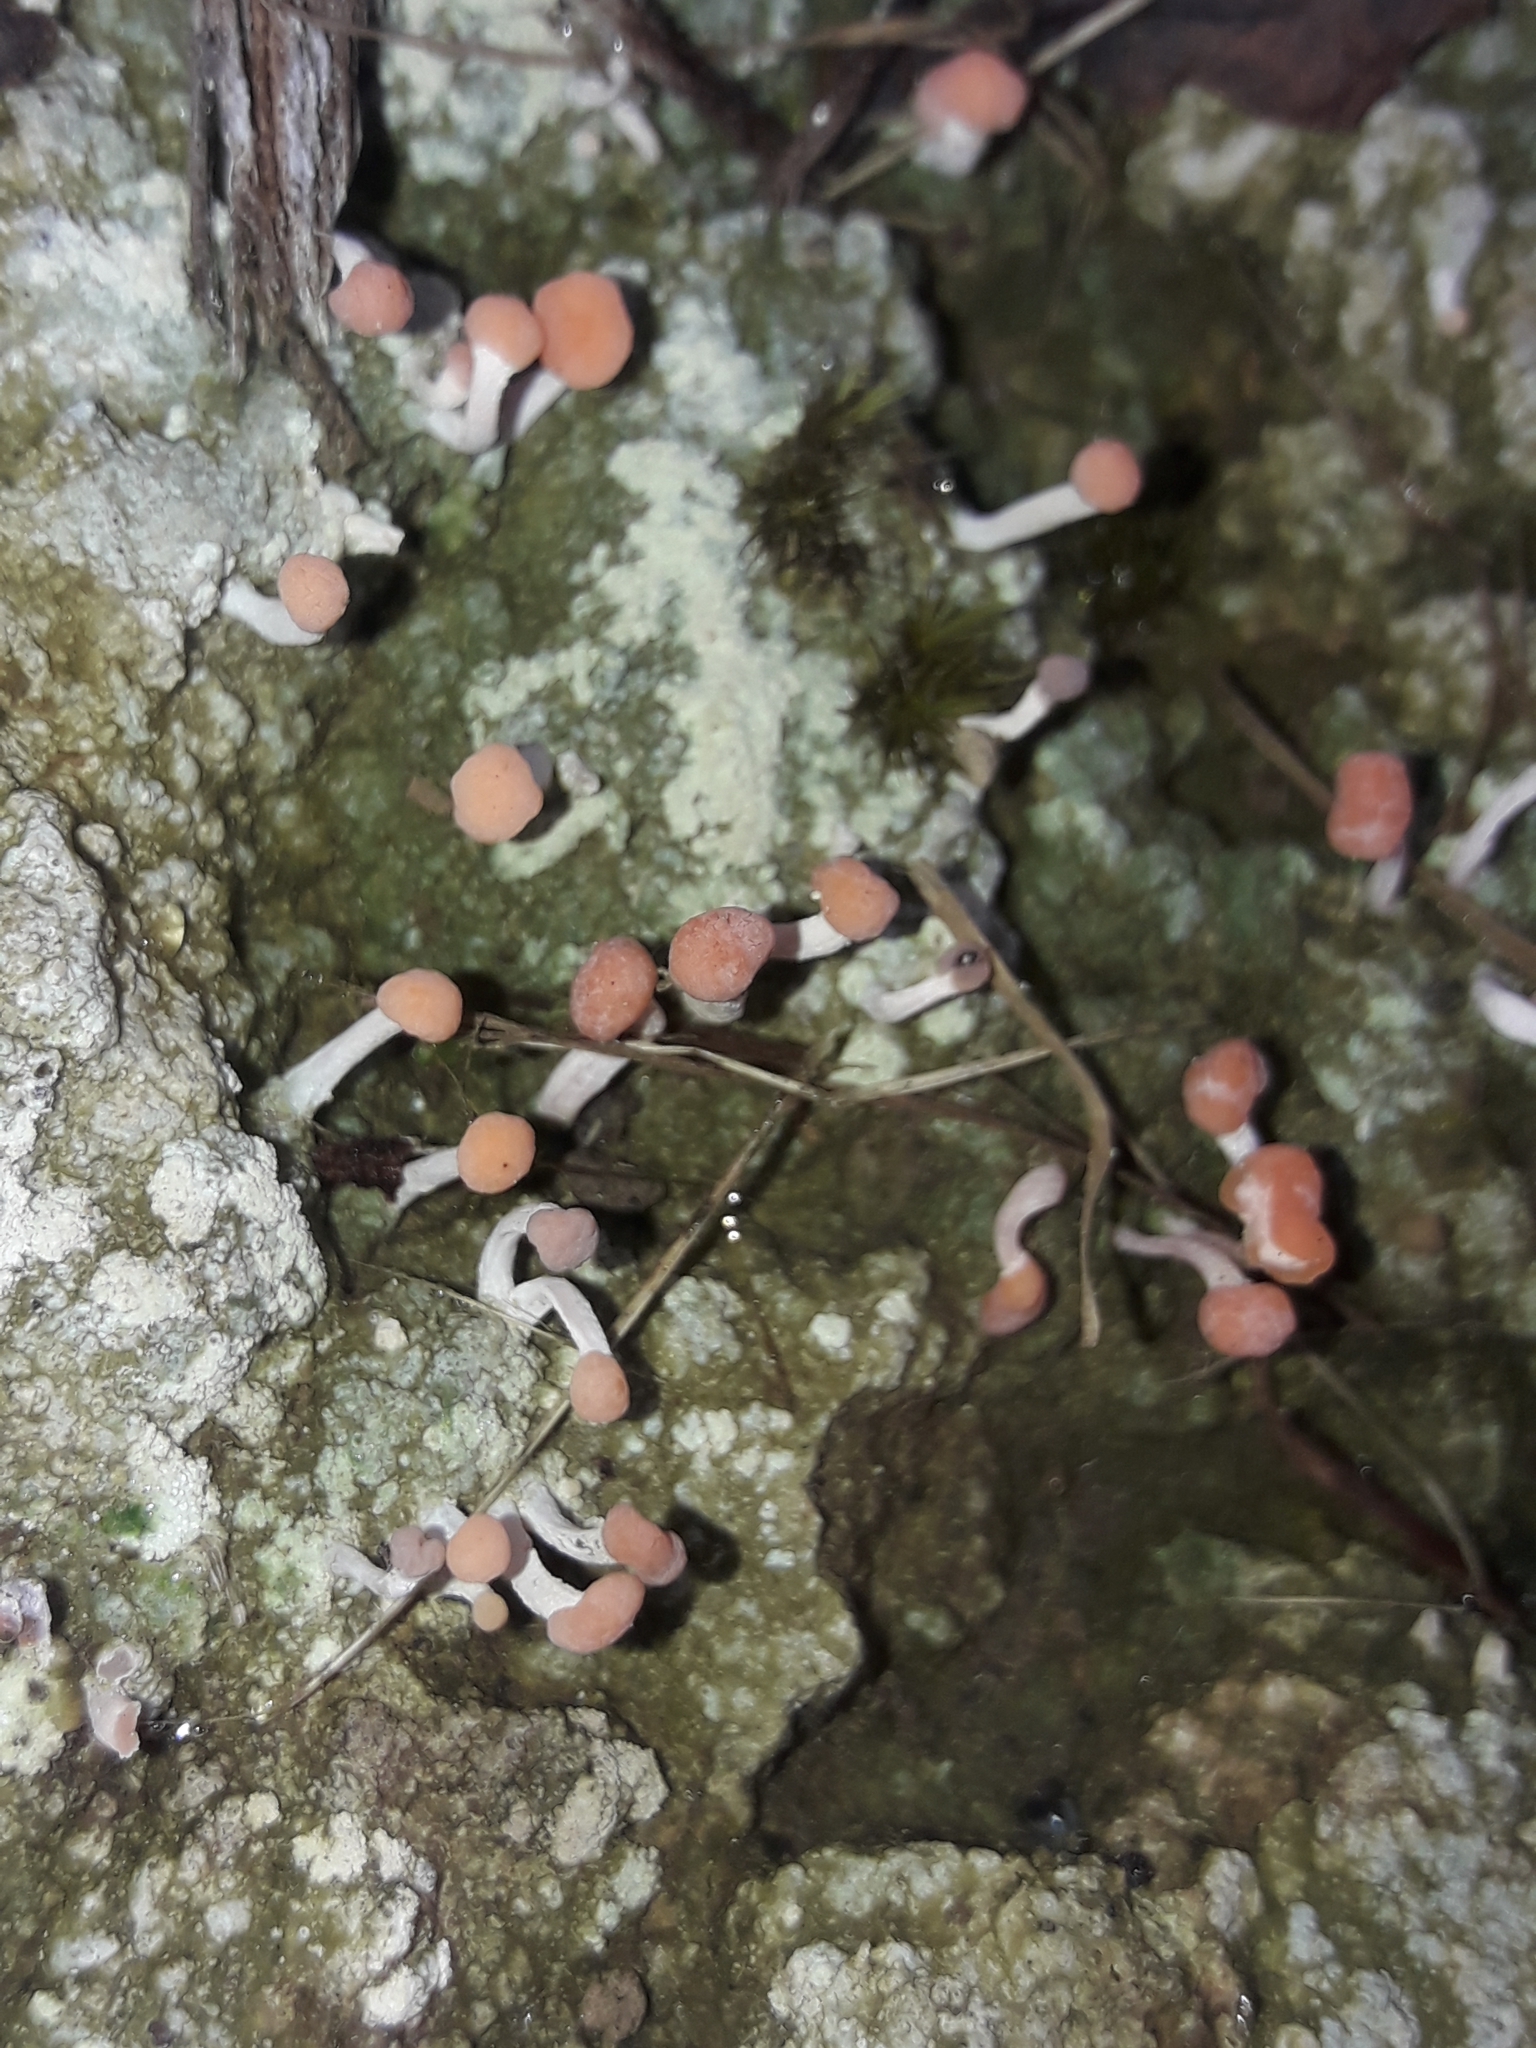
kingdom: Fungi
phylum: Ascomycota
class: Lecanoromycetes
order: Pertusariales
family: Icmadophilaceae
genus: Dibaeis
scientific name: Dibaeis arcuata
